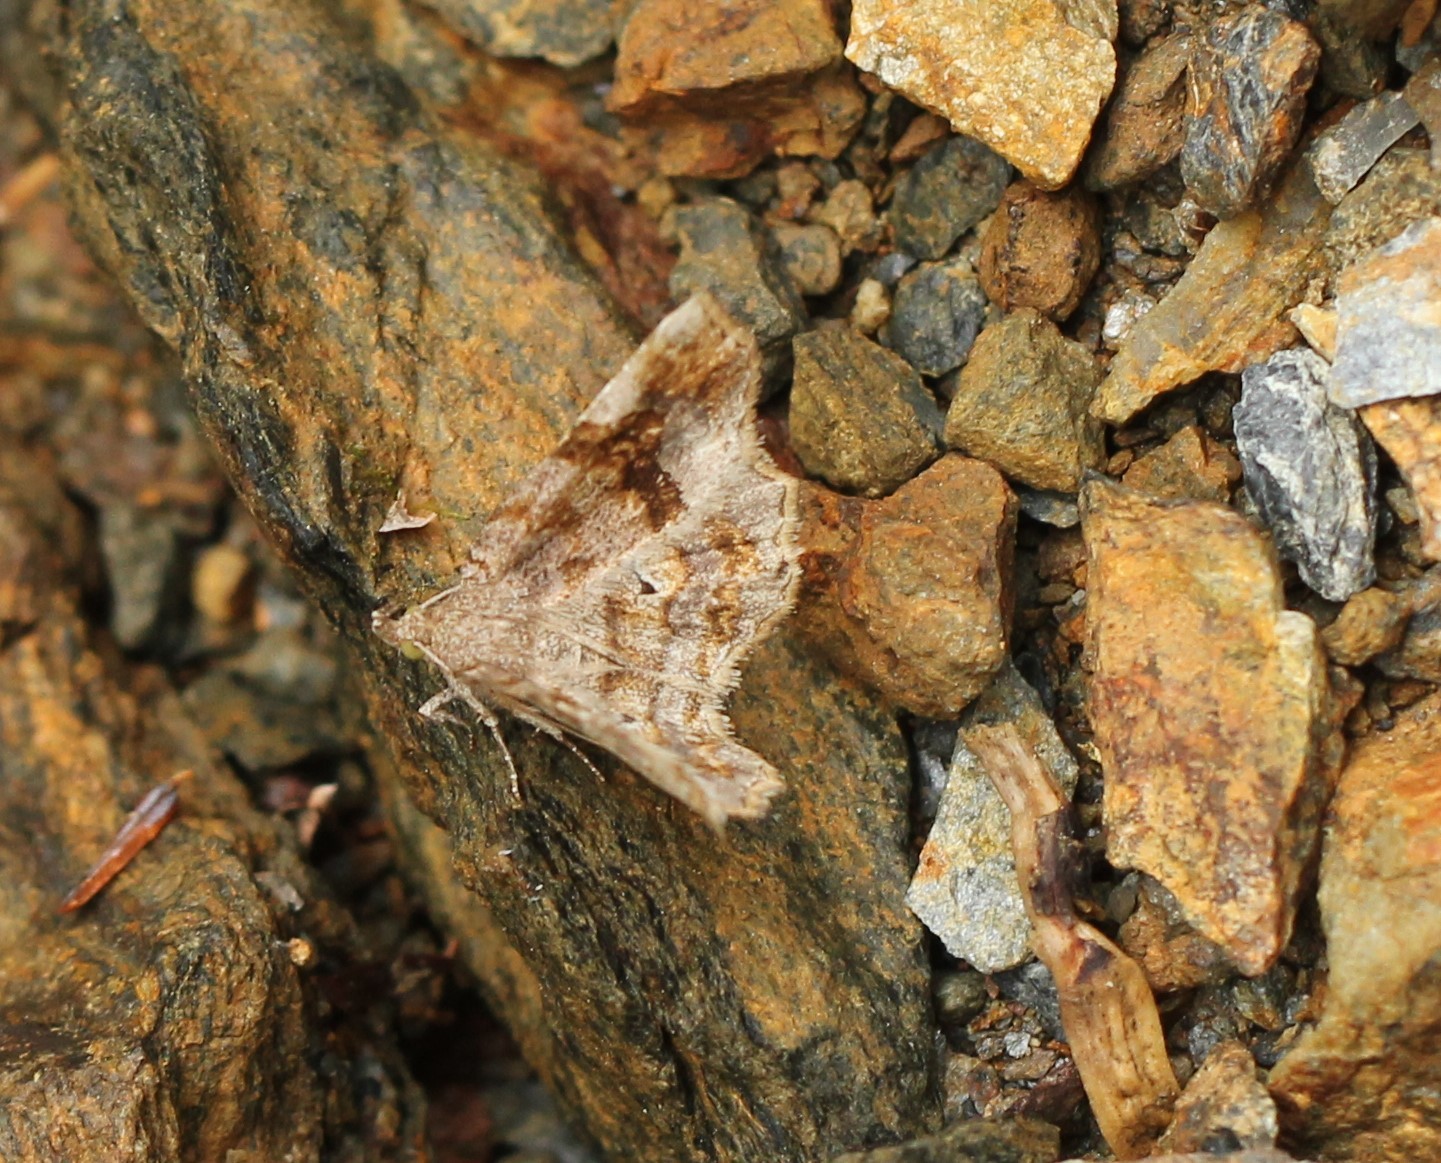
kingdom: Animalia
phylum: Arthropoda
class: Insecta
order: Lepidoptera
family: Erebidae
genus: Pangrapta
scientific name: Pangrapta decoralis
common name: Decorated owlet
